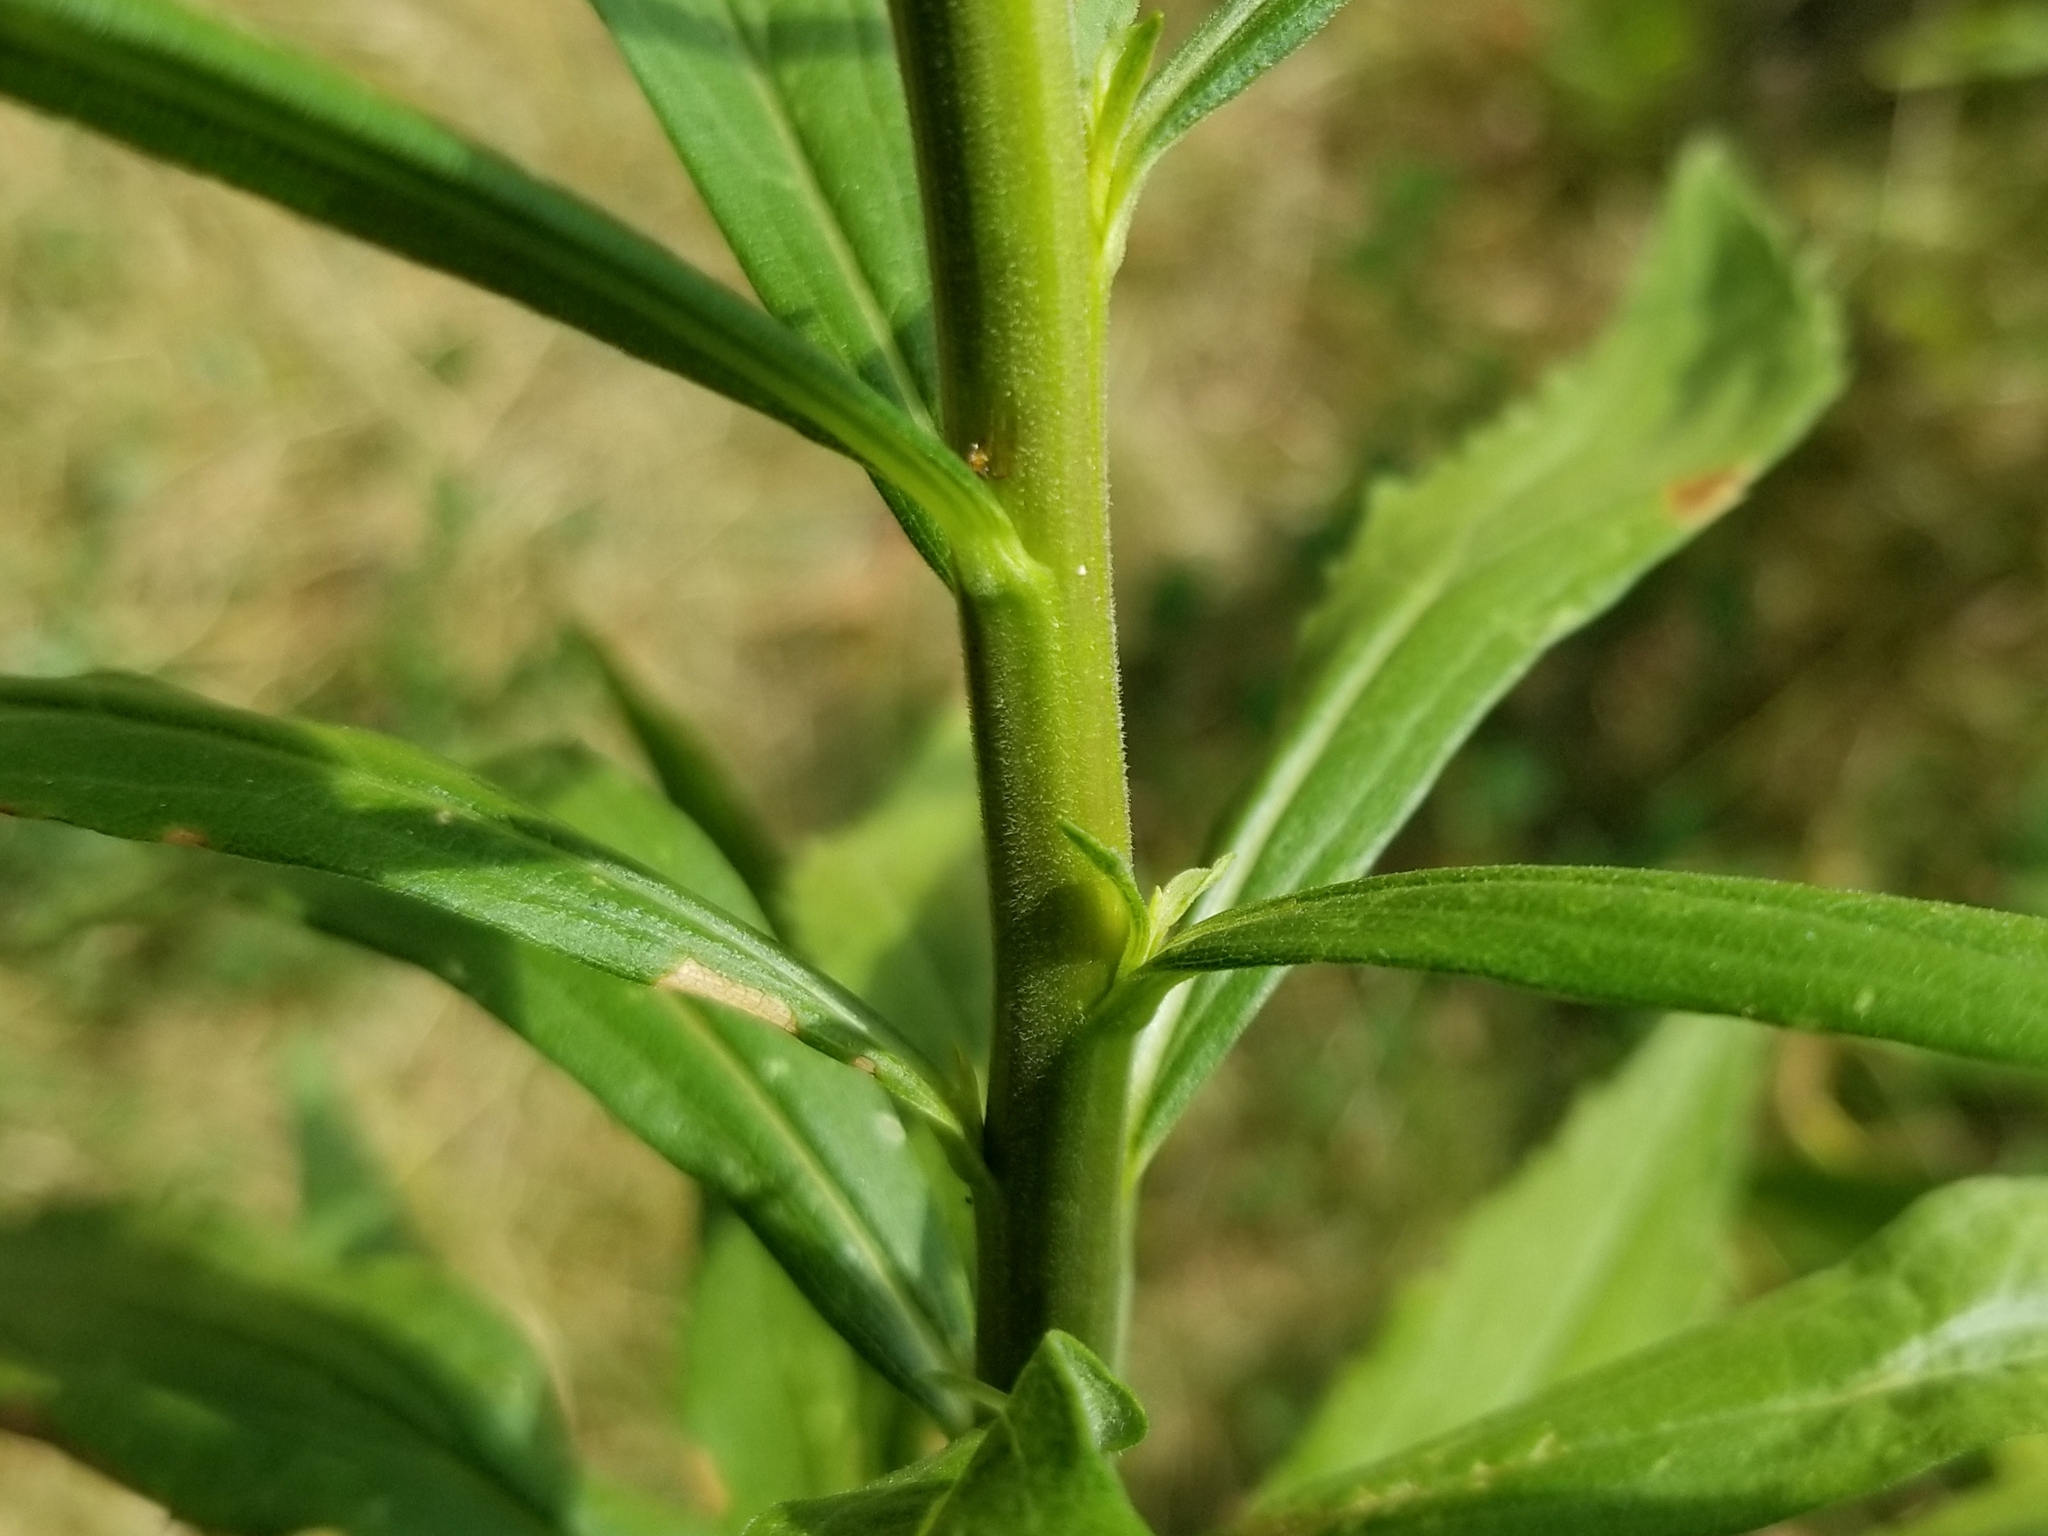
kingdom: Plantae
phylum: Tracheophyta
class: Magnoliopsida
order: Asterales
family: Asteraceae
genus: Solidago
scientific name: Solidago altissima
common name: Late goldenrod
